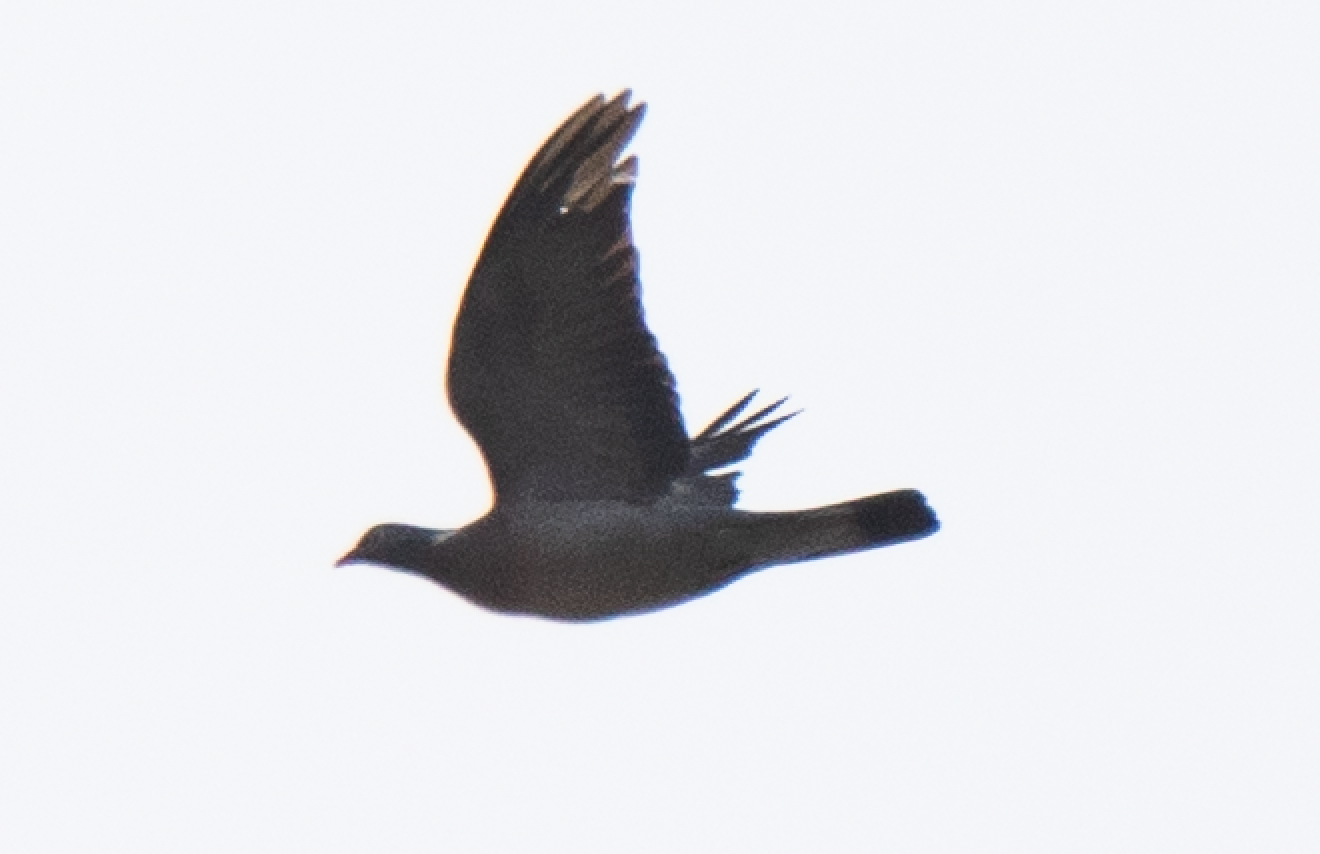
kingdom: Animalia
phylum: Chordata
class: Aves
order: Columbiformes
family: Columbidae
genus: Columba
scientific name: Columba palumbus
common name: Common wood pigeon
